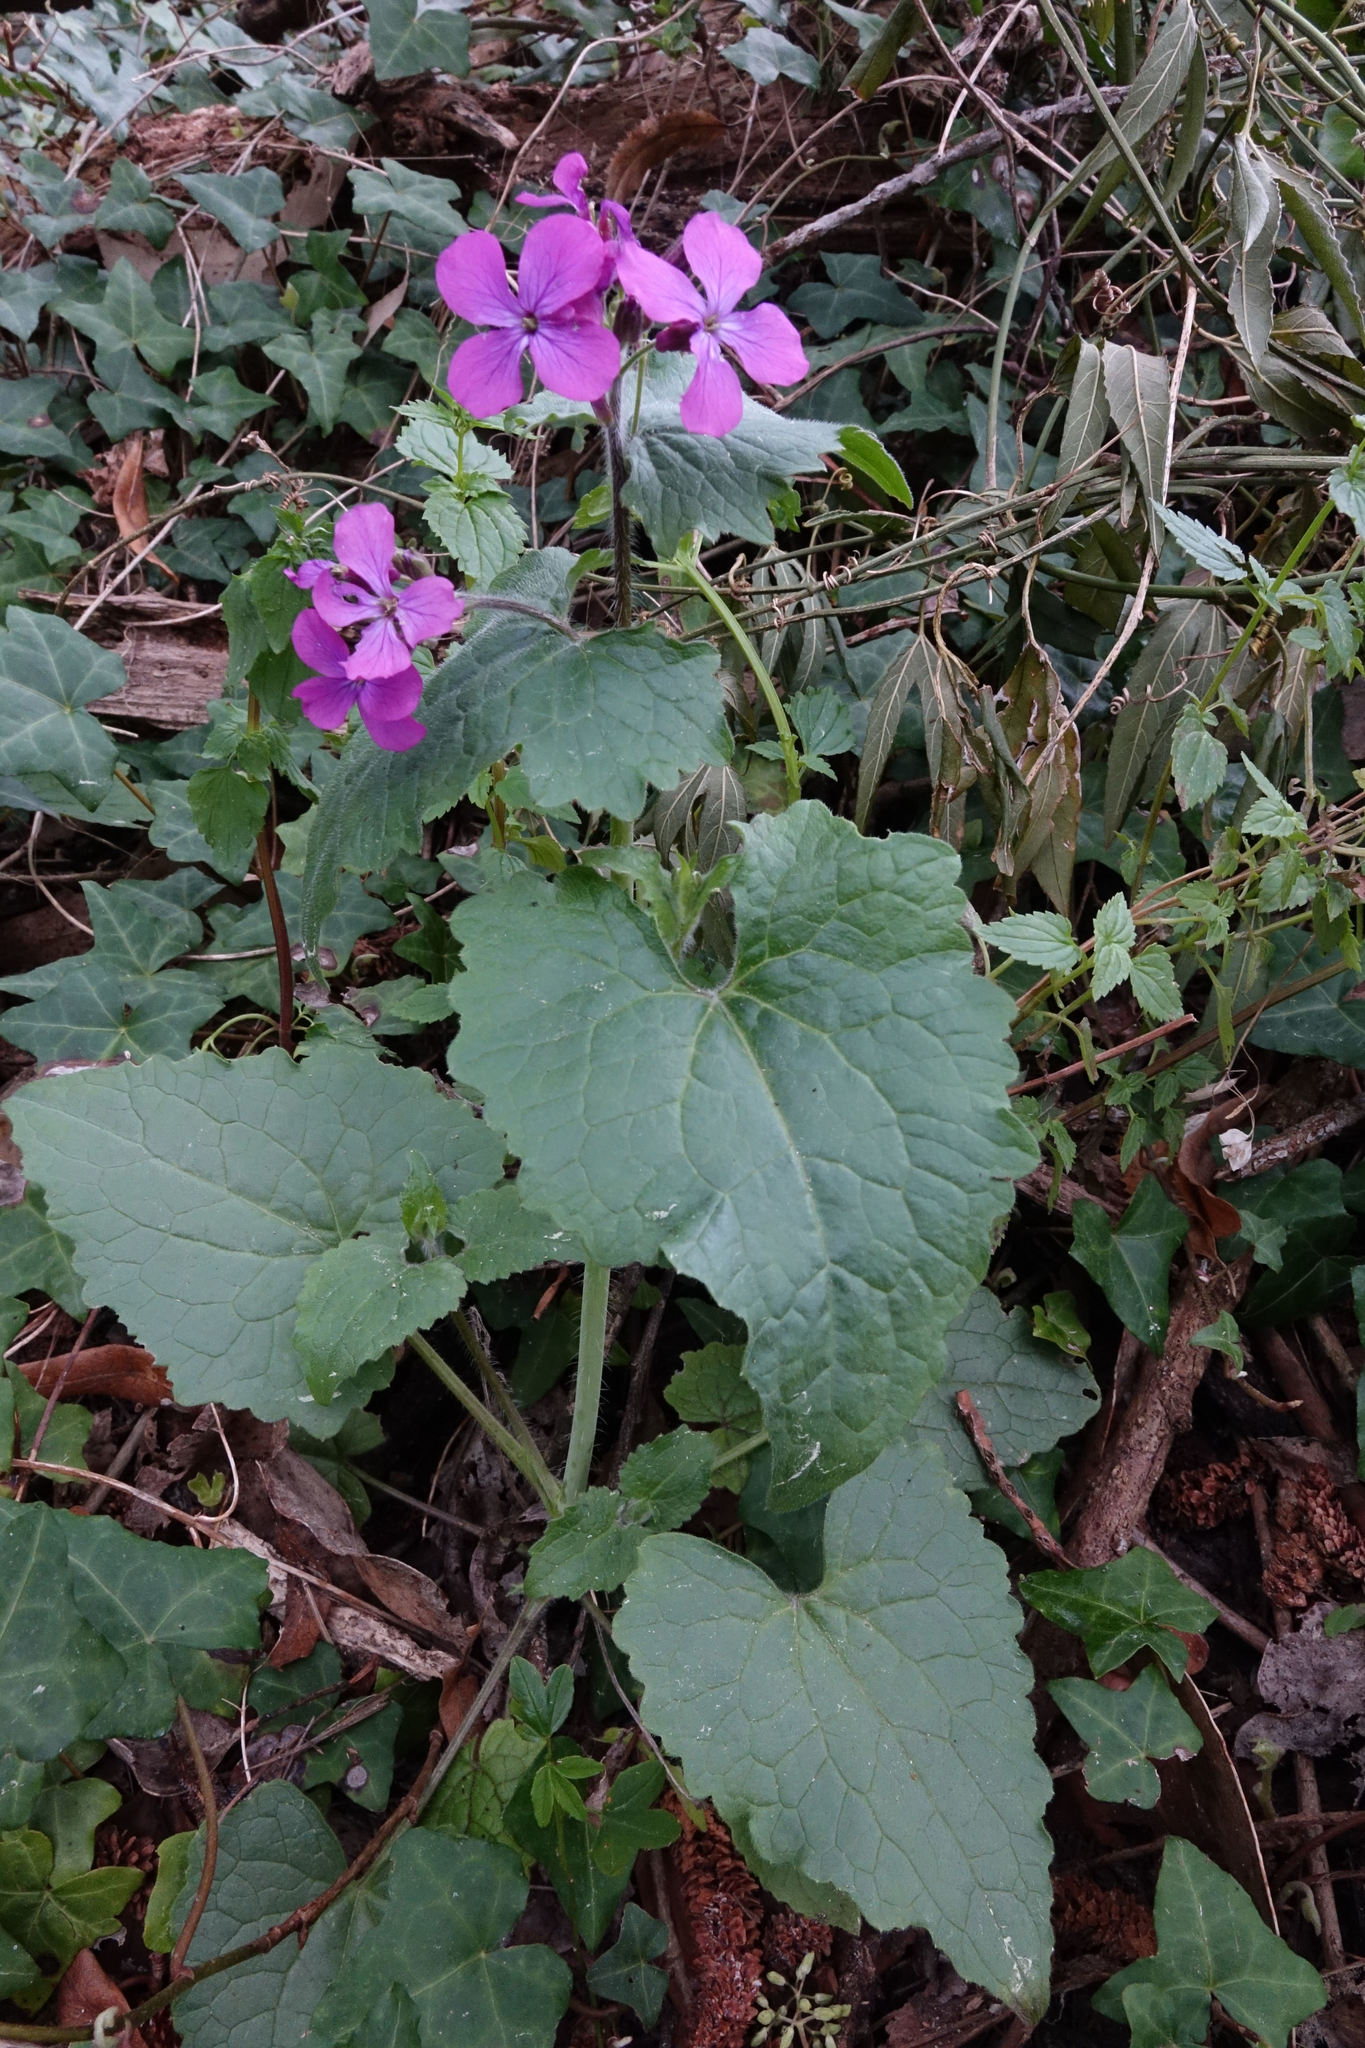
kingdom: Plantae
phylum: Tracheophyta
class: Magnoliopsida
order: Brassicales
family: Brassicaceae
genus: Lunaria
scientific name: Lunaria annua
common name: Honesty
